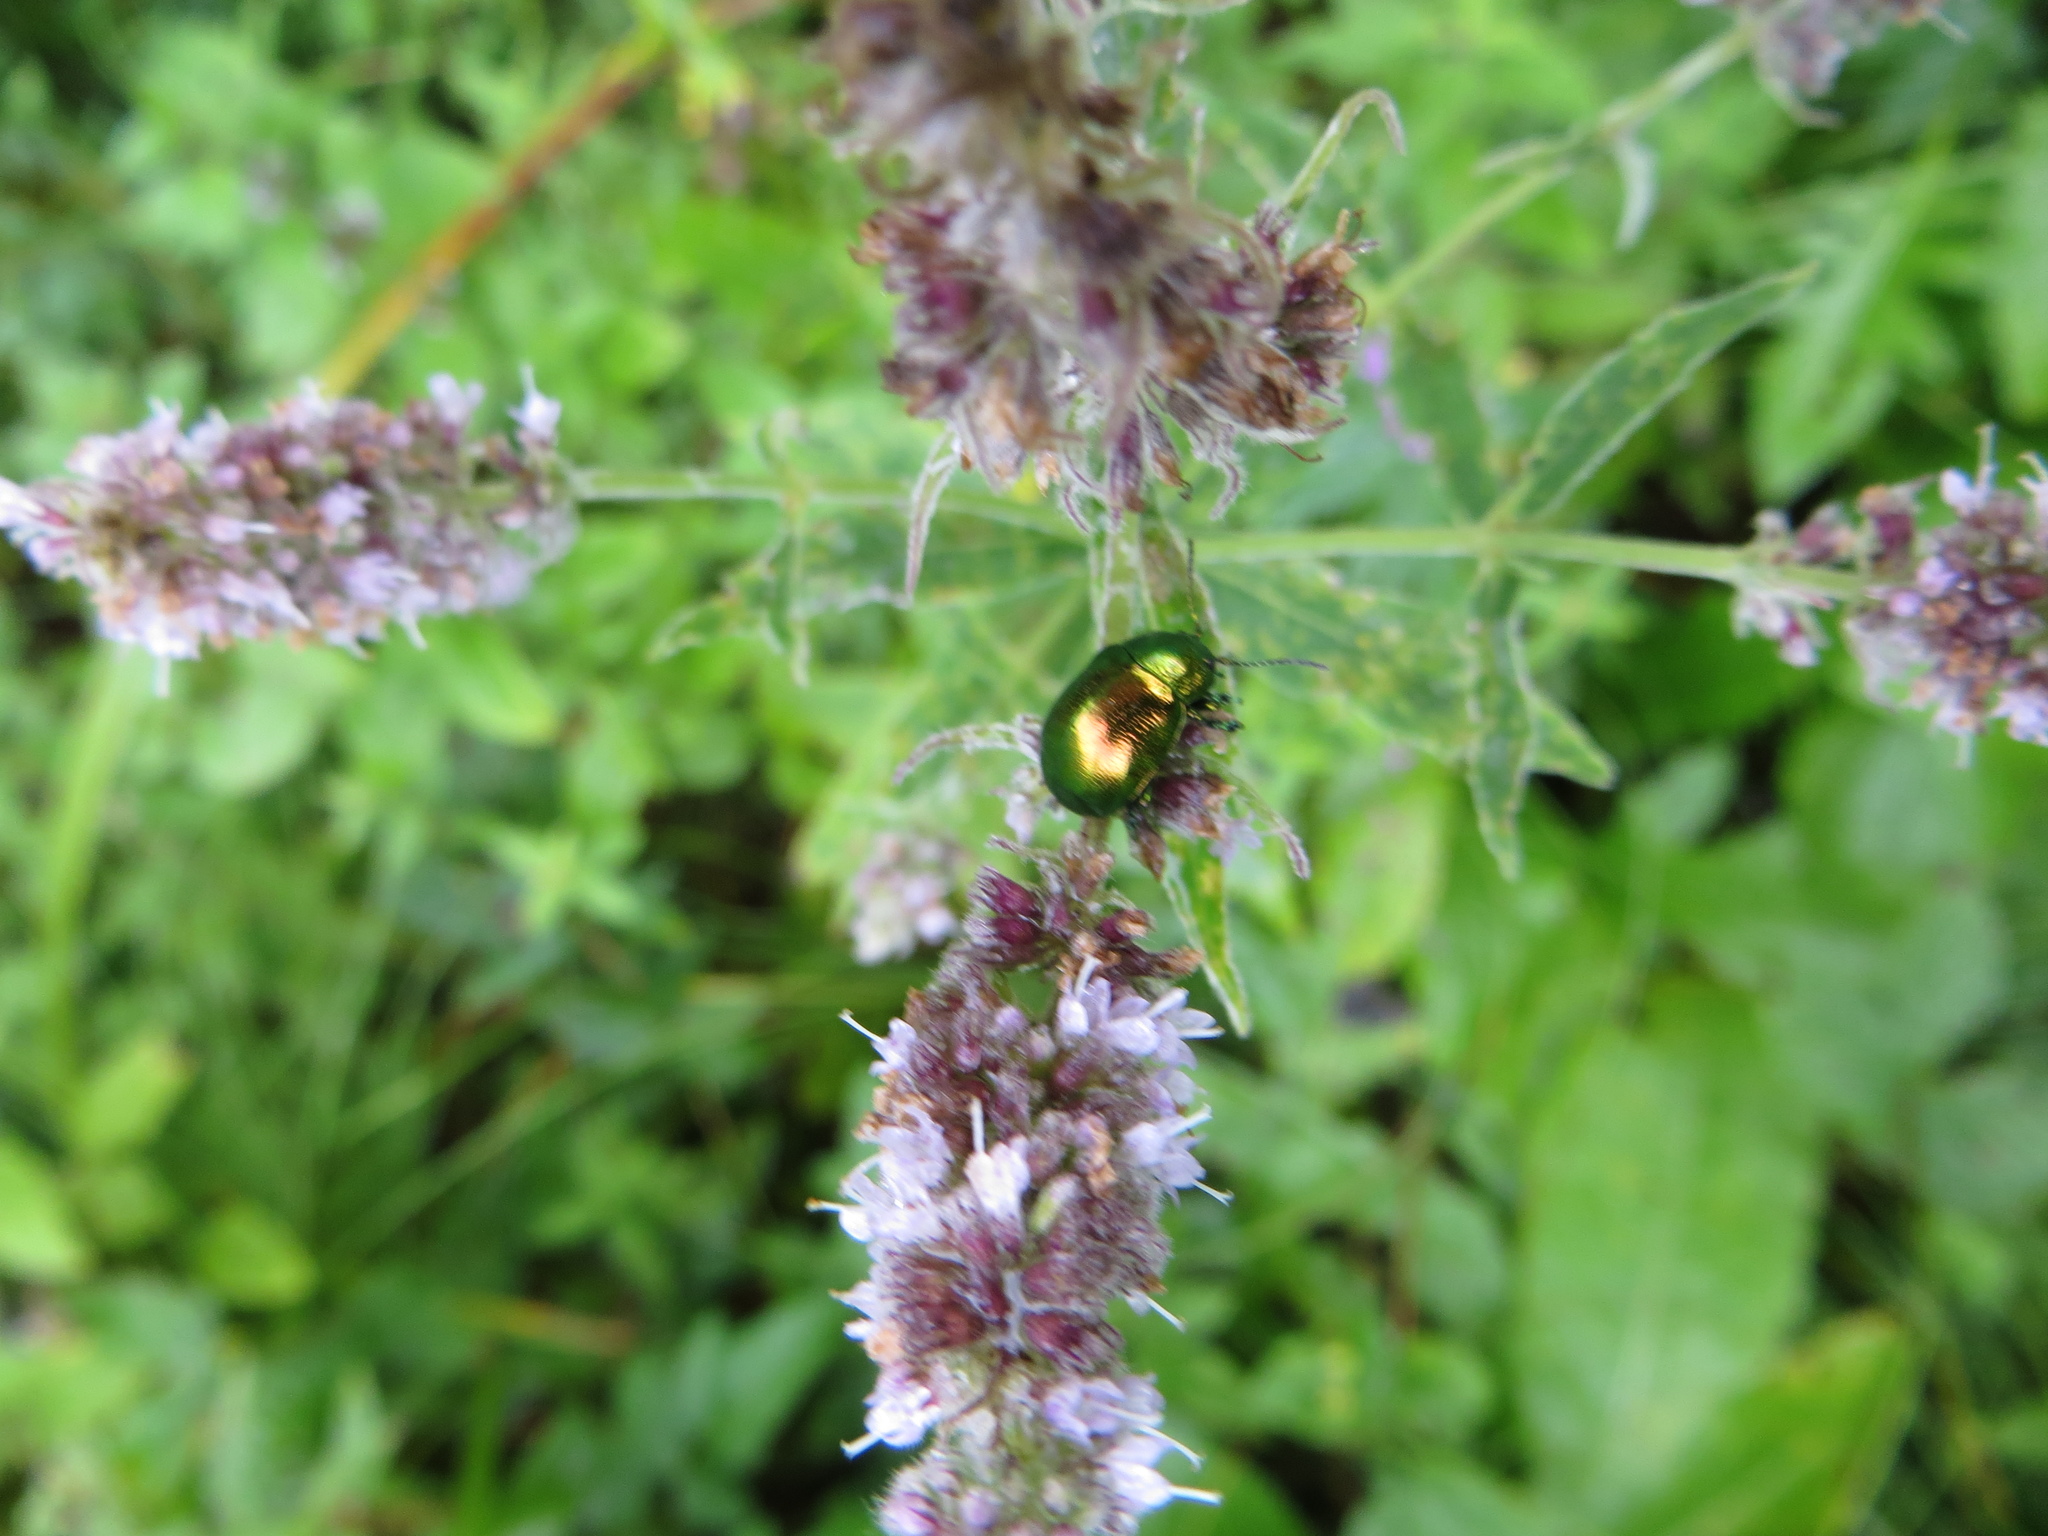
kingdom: Animalia
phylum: Arthropoda
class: Insecta
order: Coleoptera
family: Chrysomelidae
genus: Chrysolina
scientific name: Chrysolina herbacea
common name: Mint leaf beatle
